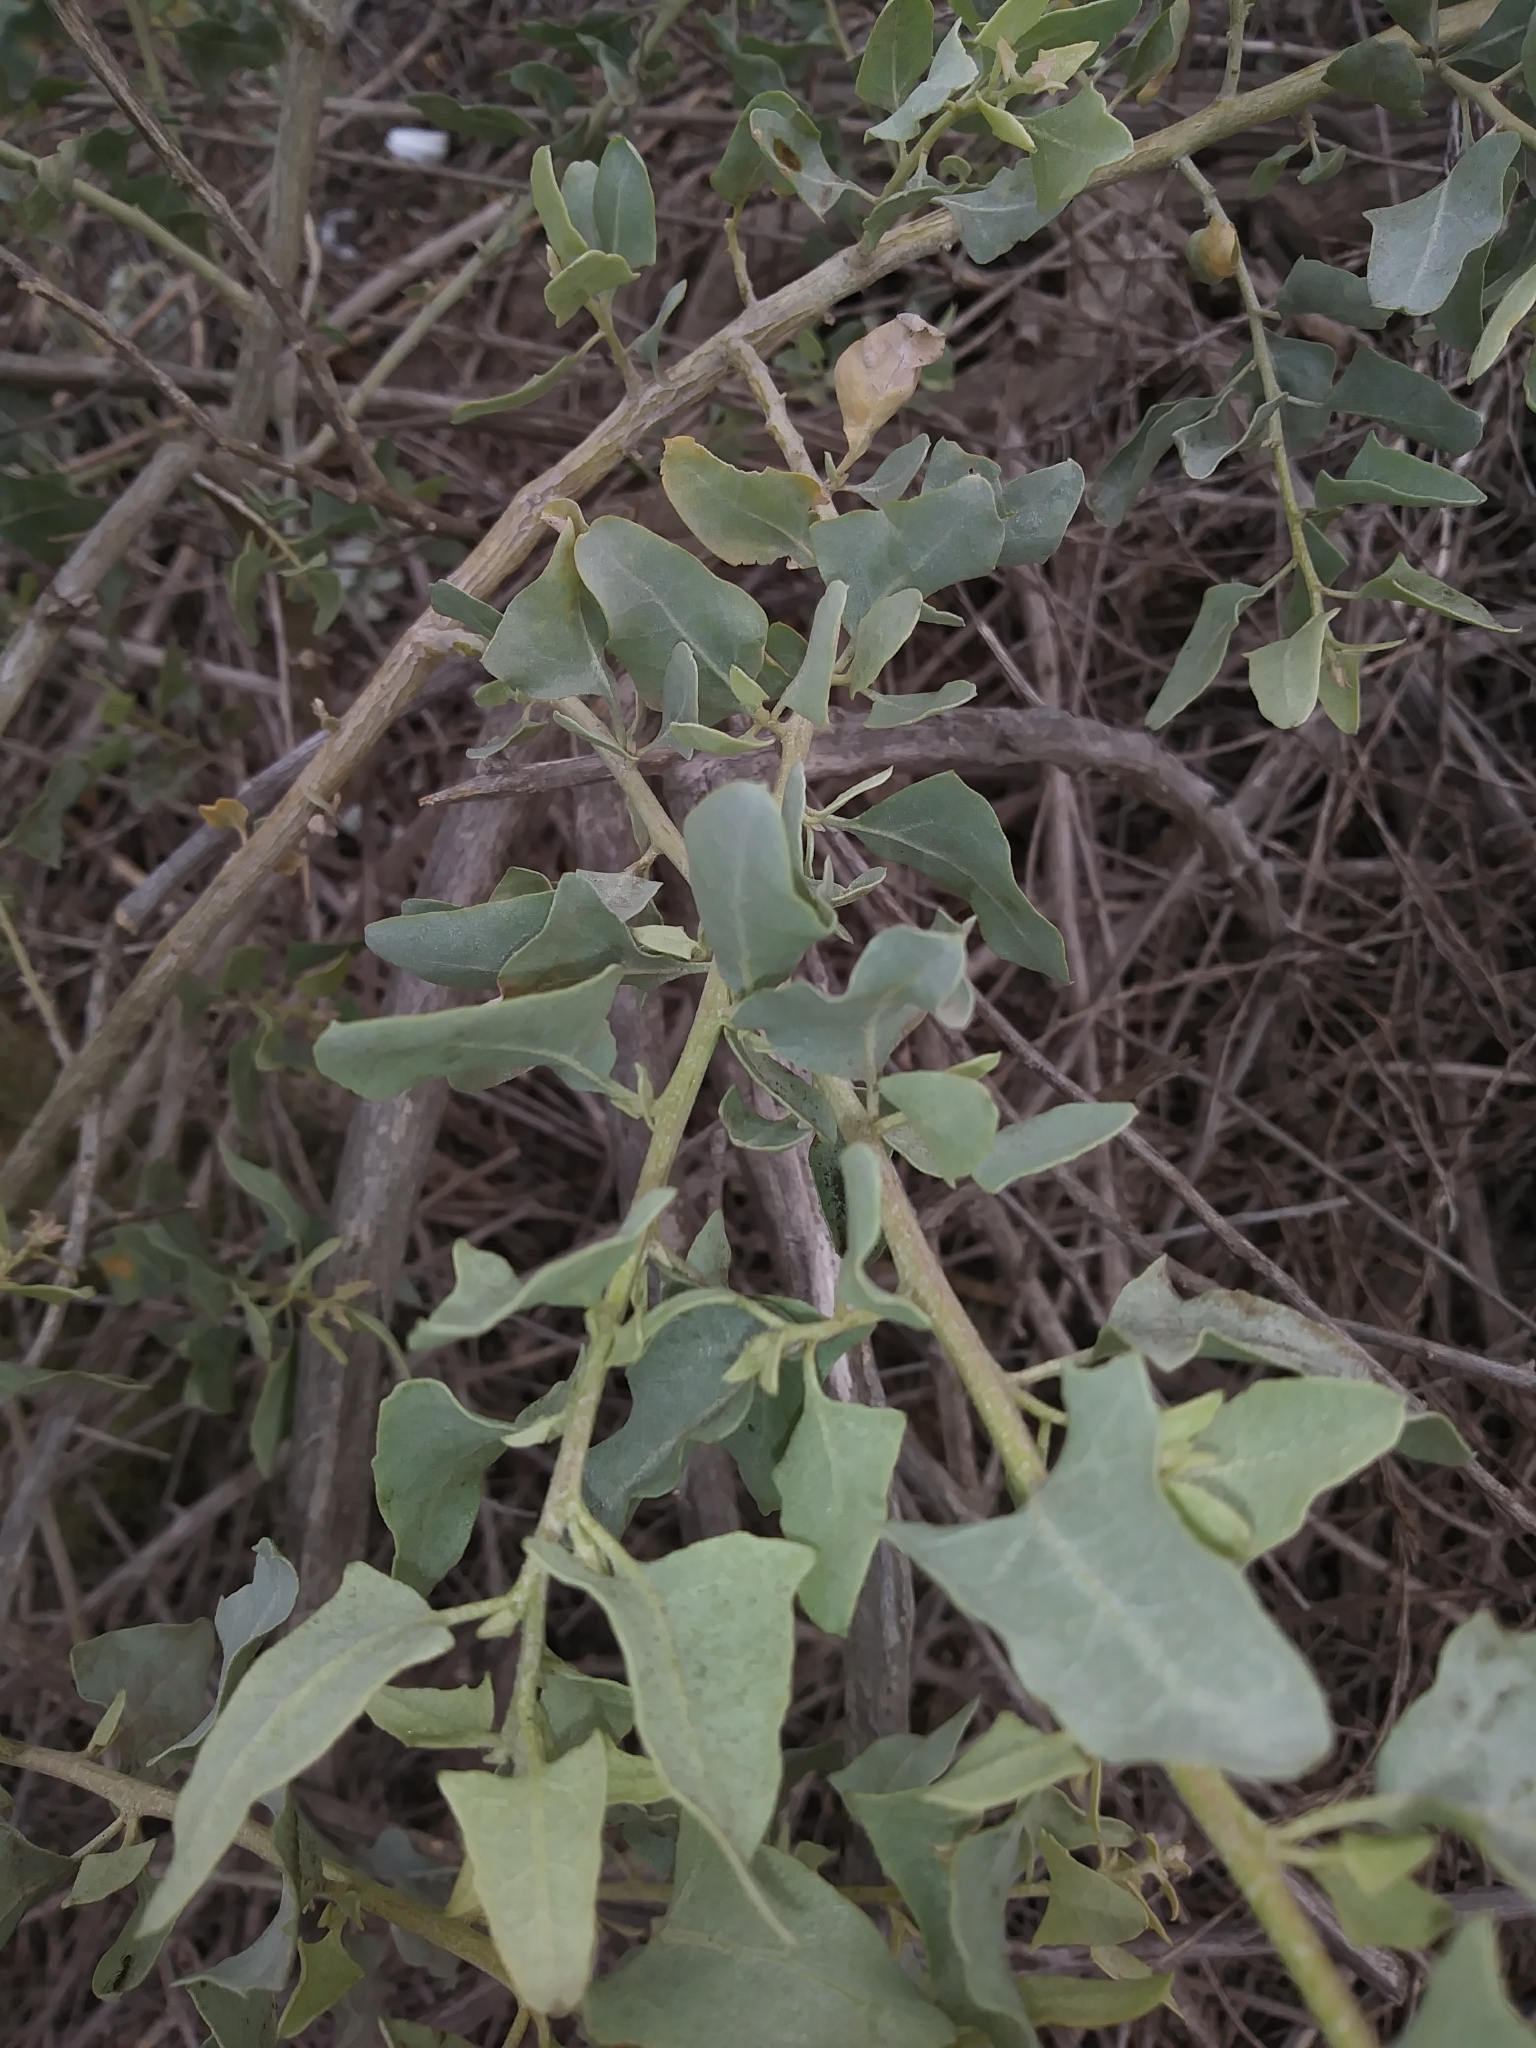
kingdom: Plantae
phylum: Tracheophyta
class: Magnoliopsida
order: Caryophyllales
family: Amaranthaceae
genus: Atriplex
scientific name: Atriplex lentiformis
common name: Big saltbush
